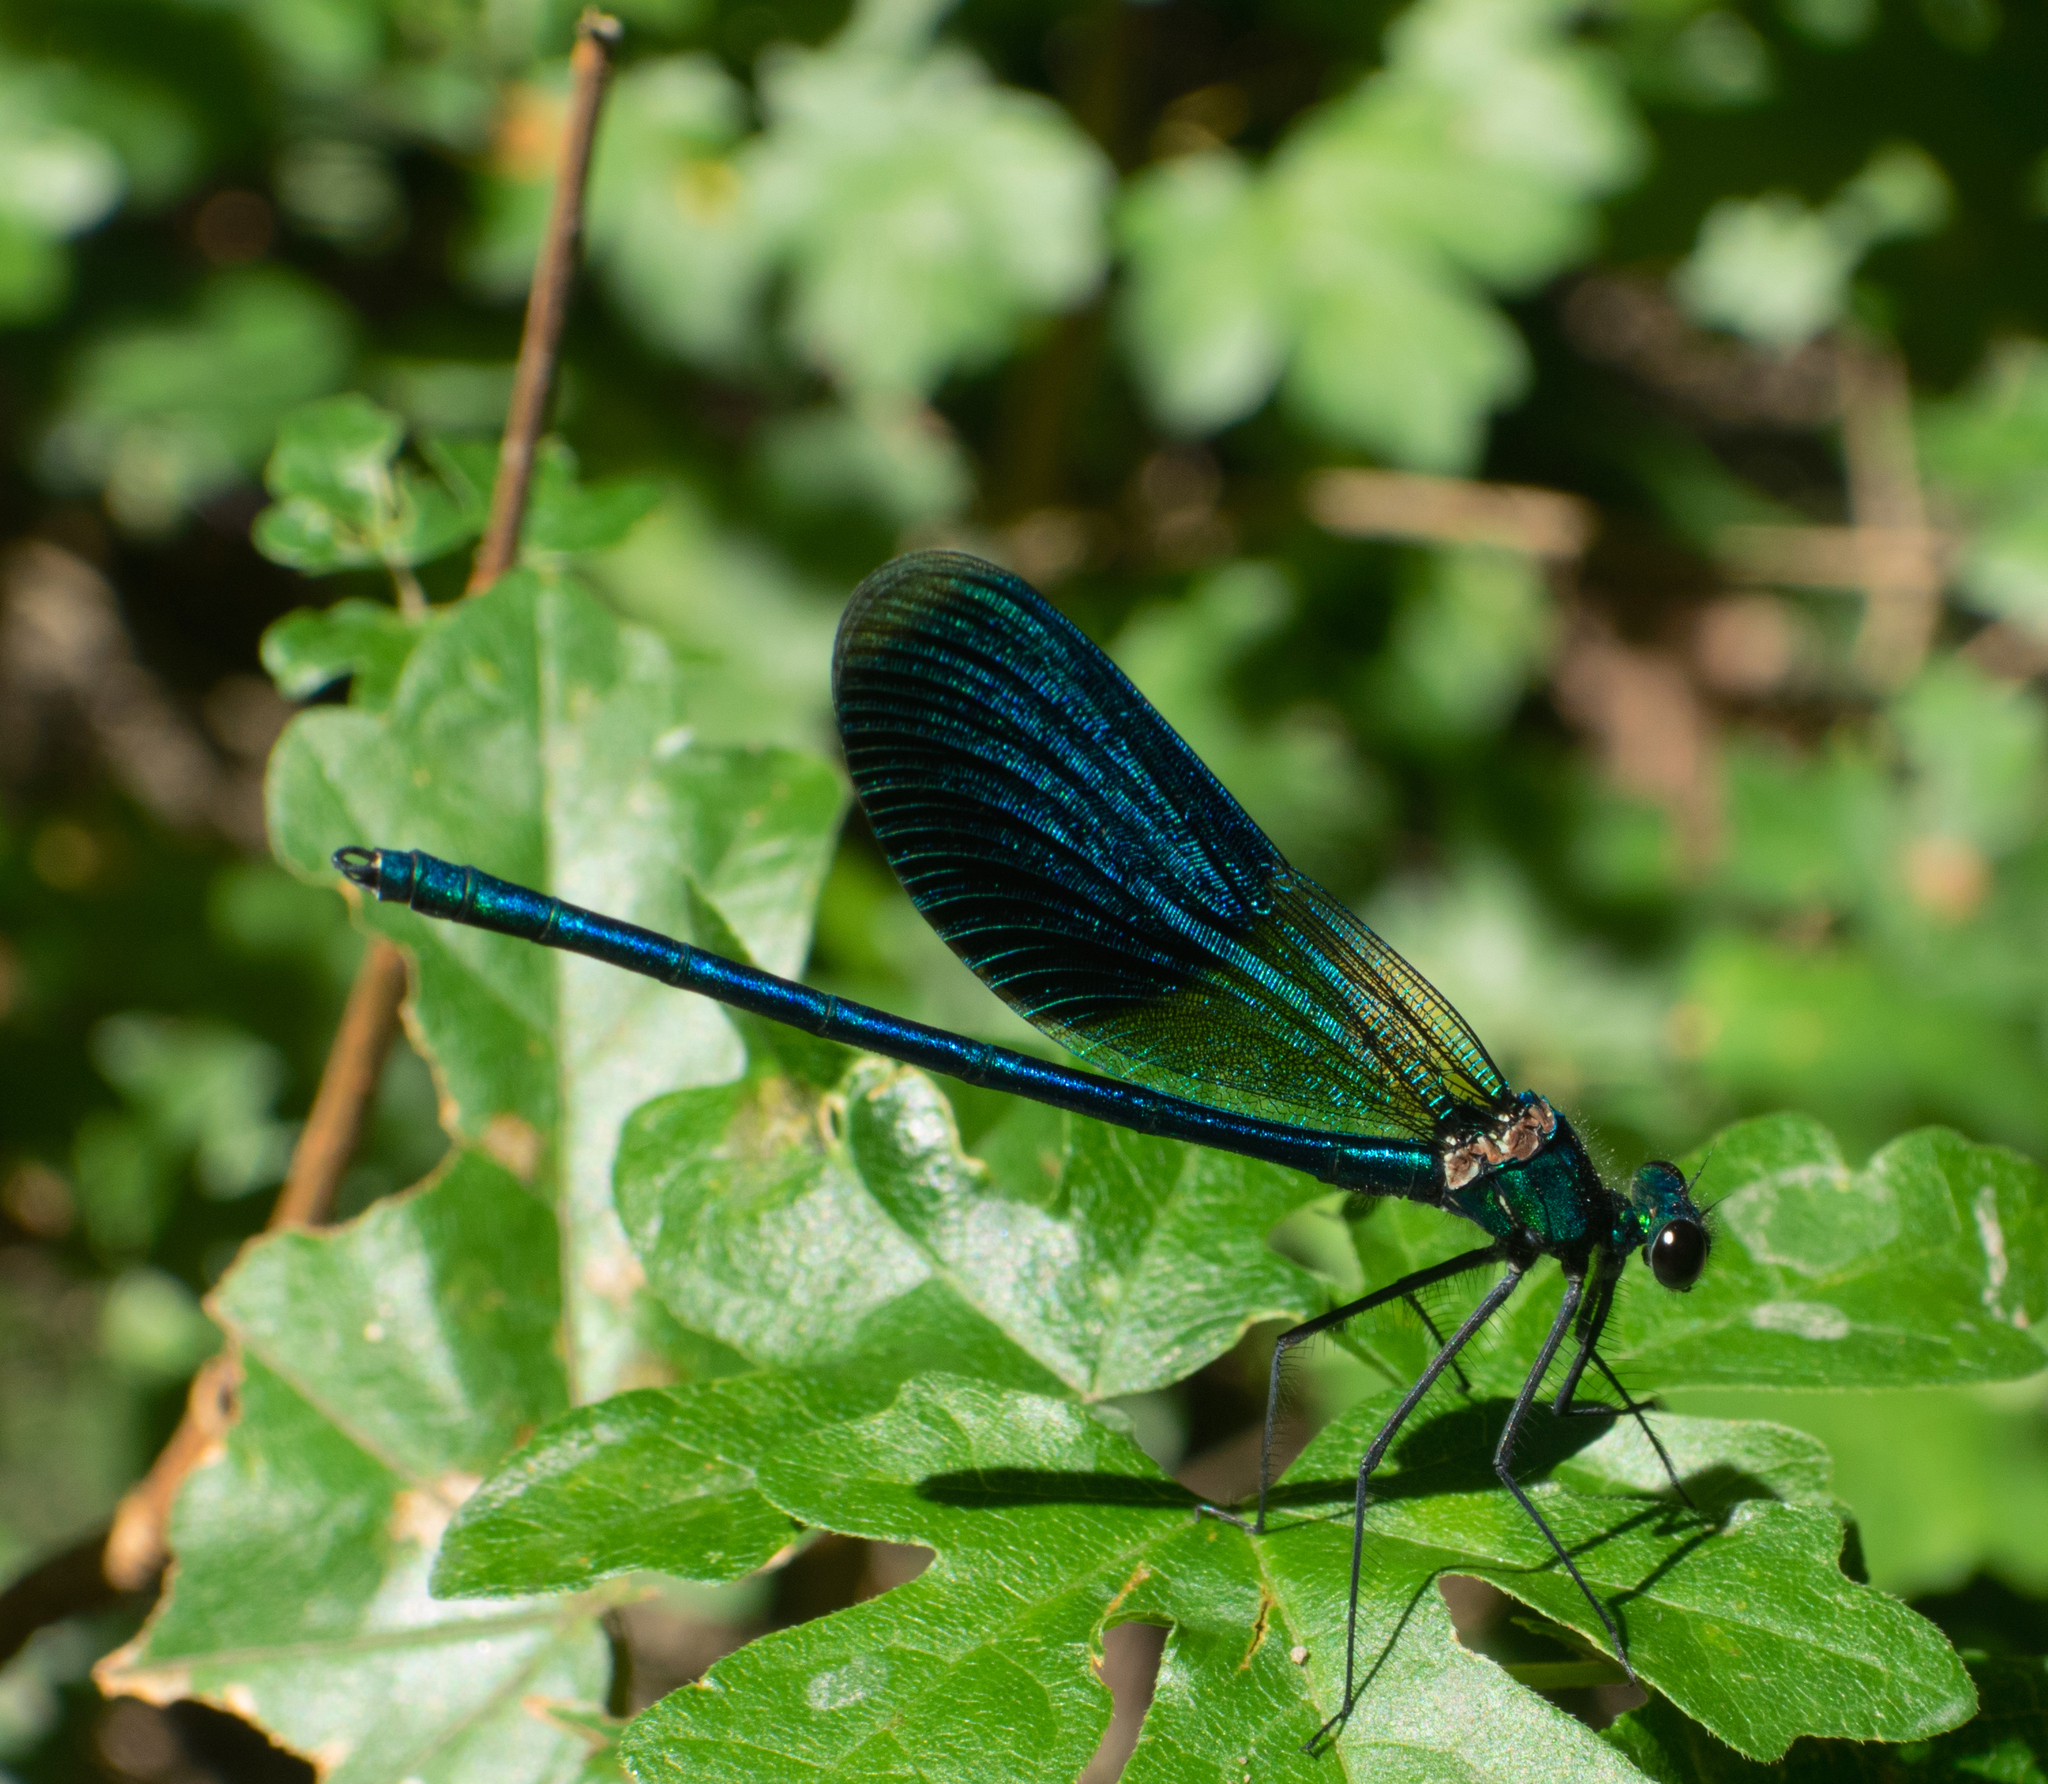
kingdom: Animalia
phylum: Arthropoda
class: Insecta
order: Odonata
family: Calopterygidae
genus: Calopteryx
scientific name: Calopteryx splendens
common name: Banded demoiselle
